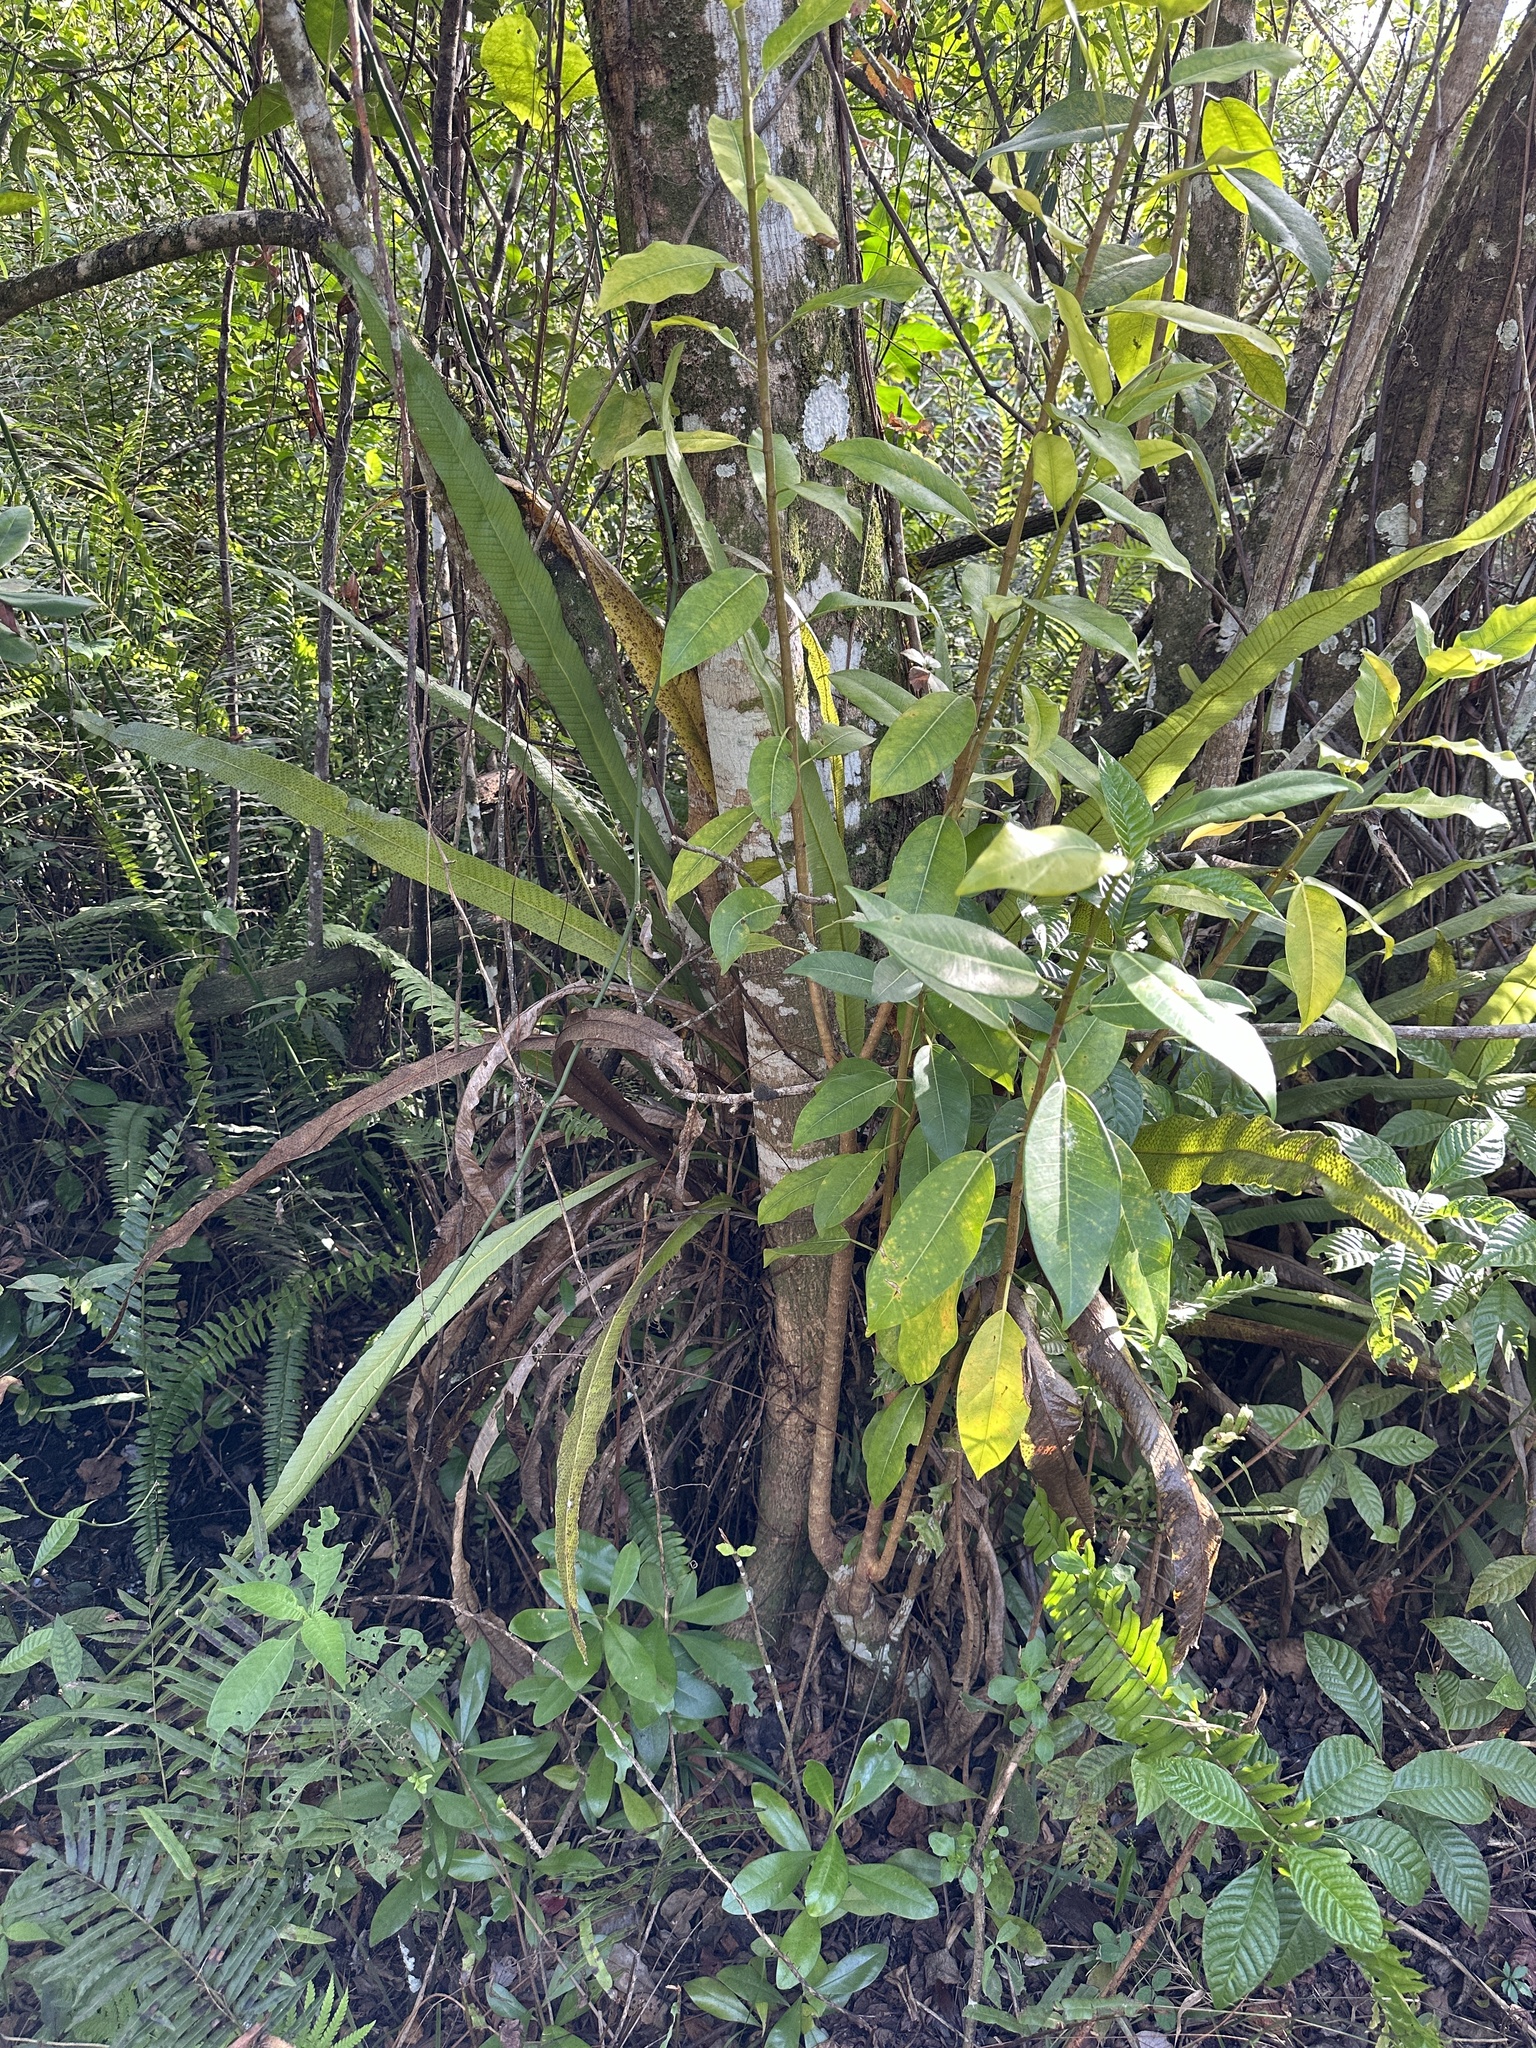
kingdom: Plantae
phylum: Tracheophyta
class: Polypodiopsida
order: Polypodiales
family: Polypodiaceae
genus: Campyloneurum
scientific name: Campyloneurum phyllitidis
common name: Cow-tongue fern
